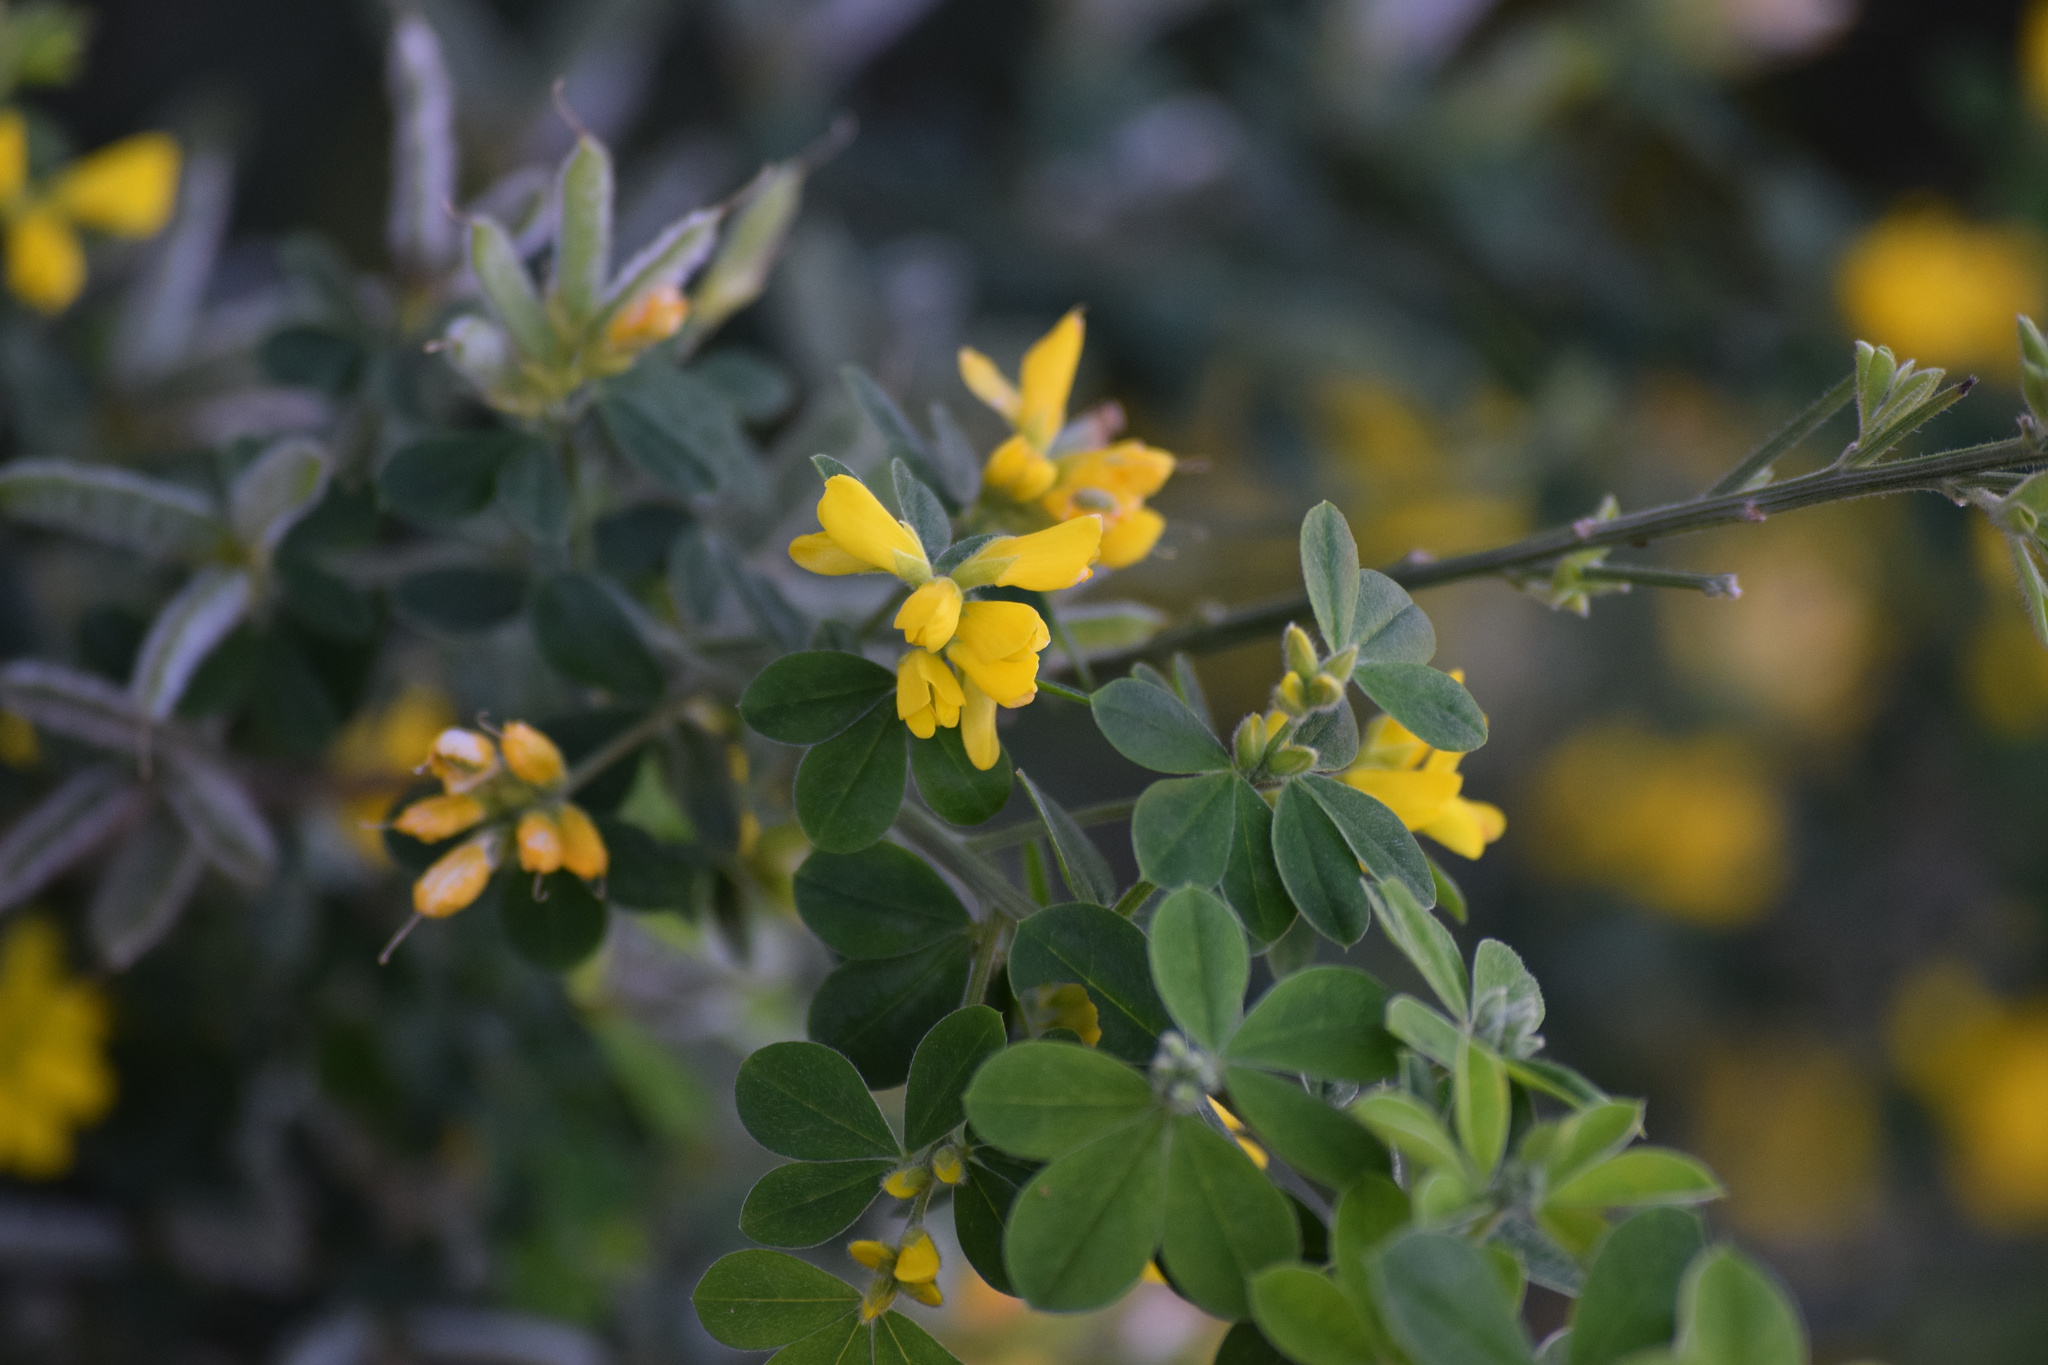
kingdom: Plantae
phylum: Tracheophyta
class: Magnoliopsida
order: Fabales
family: Fabaceae
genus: Genista
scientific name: Genista monspessulana
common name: Montpellier broom
